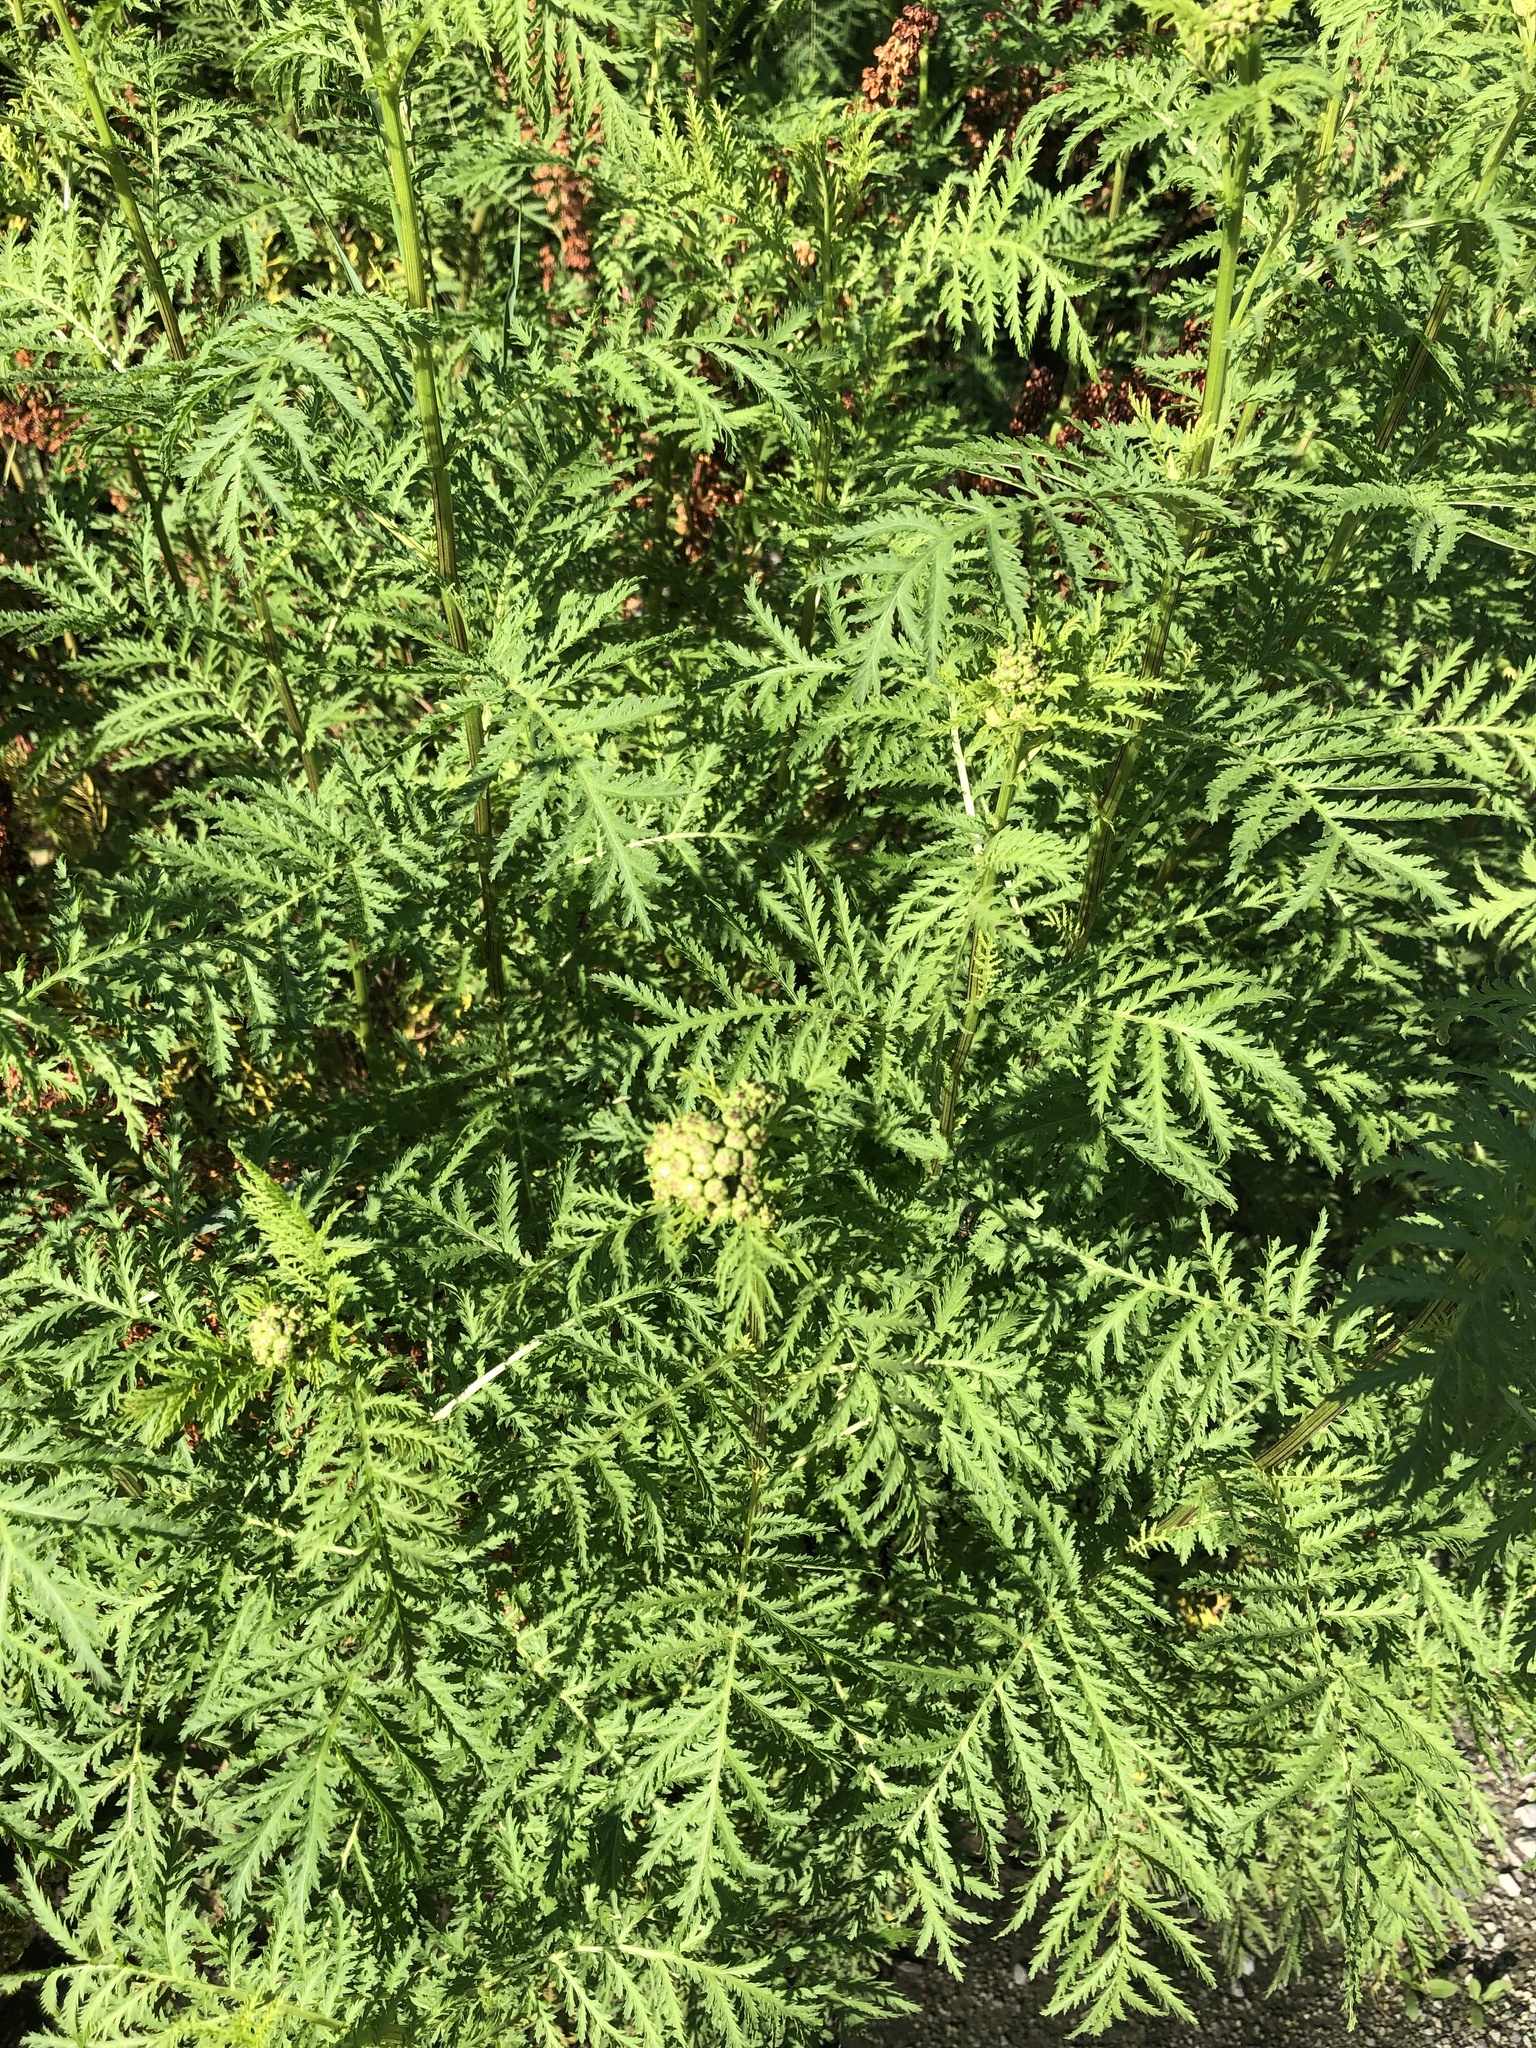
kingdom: Plantae
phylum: Tracheophyta
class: Magnoliopsida
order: Asterales
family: Asteraceae
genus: Tanacetum
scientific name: Tanacetum vulgare
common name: Common tansy
